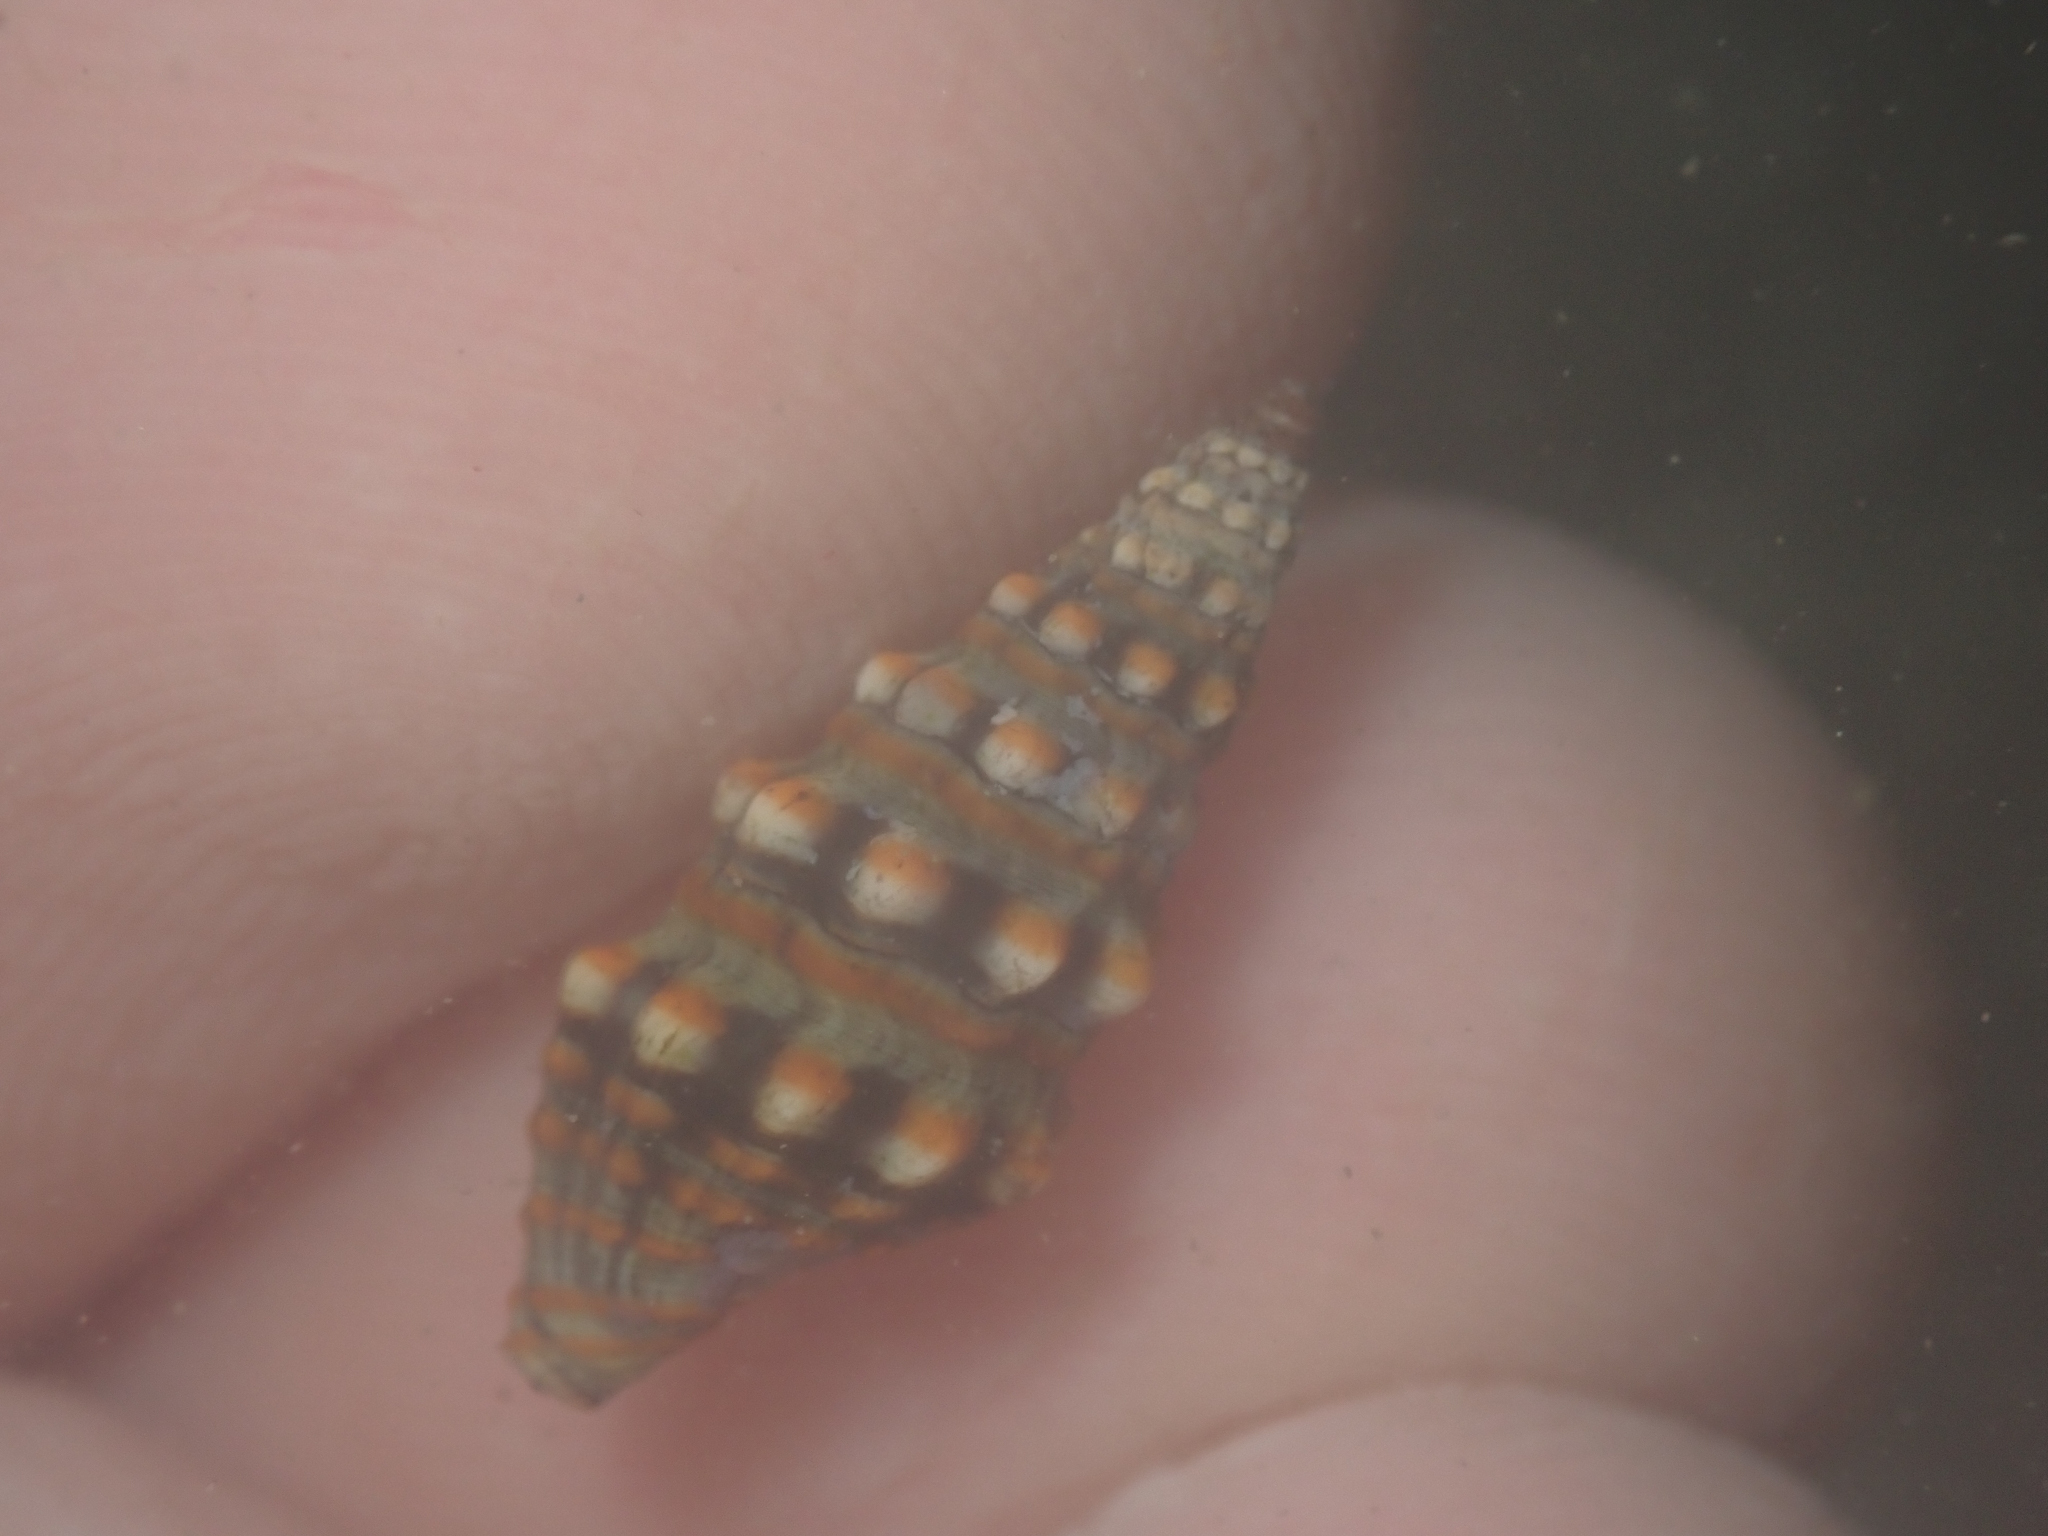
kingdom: Animalia
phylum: Mollusca
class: Gastropoda
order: Neogastropoda
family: Pseudomelatomidae
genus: Pilsbryspira
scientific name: Pilsbryspira nymphia
